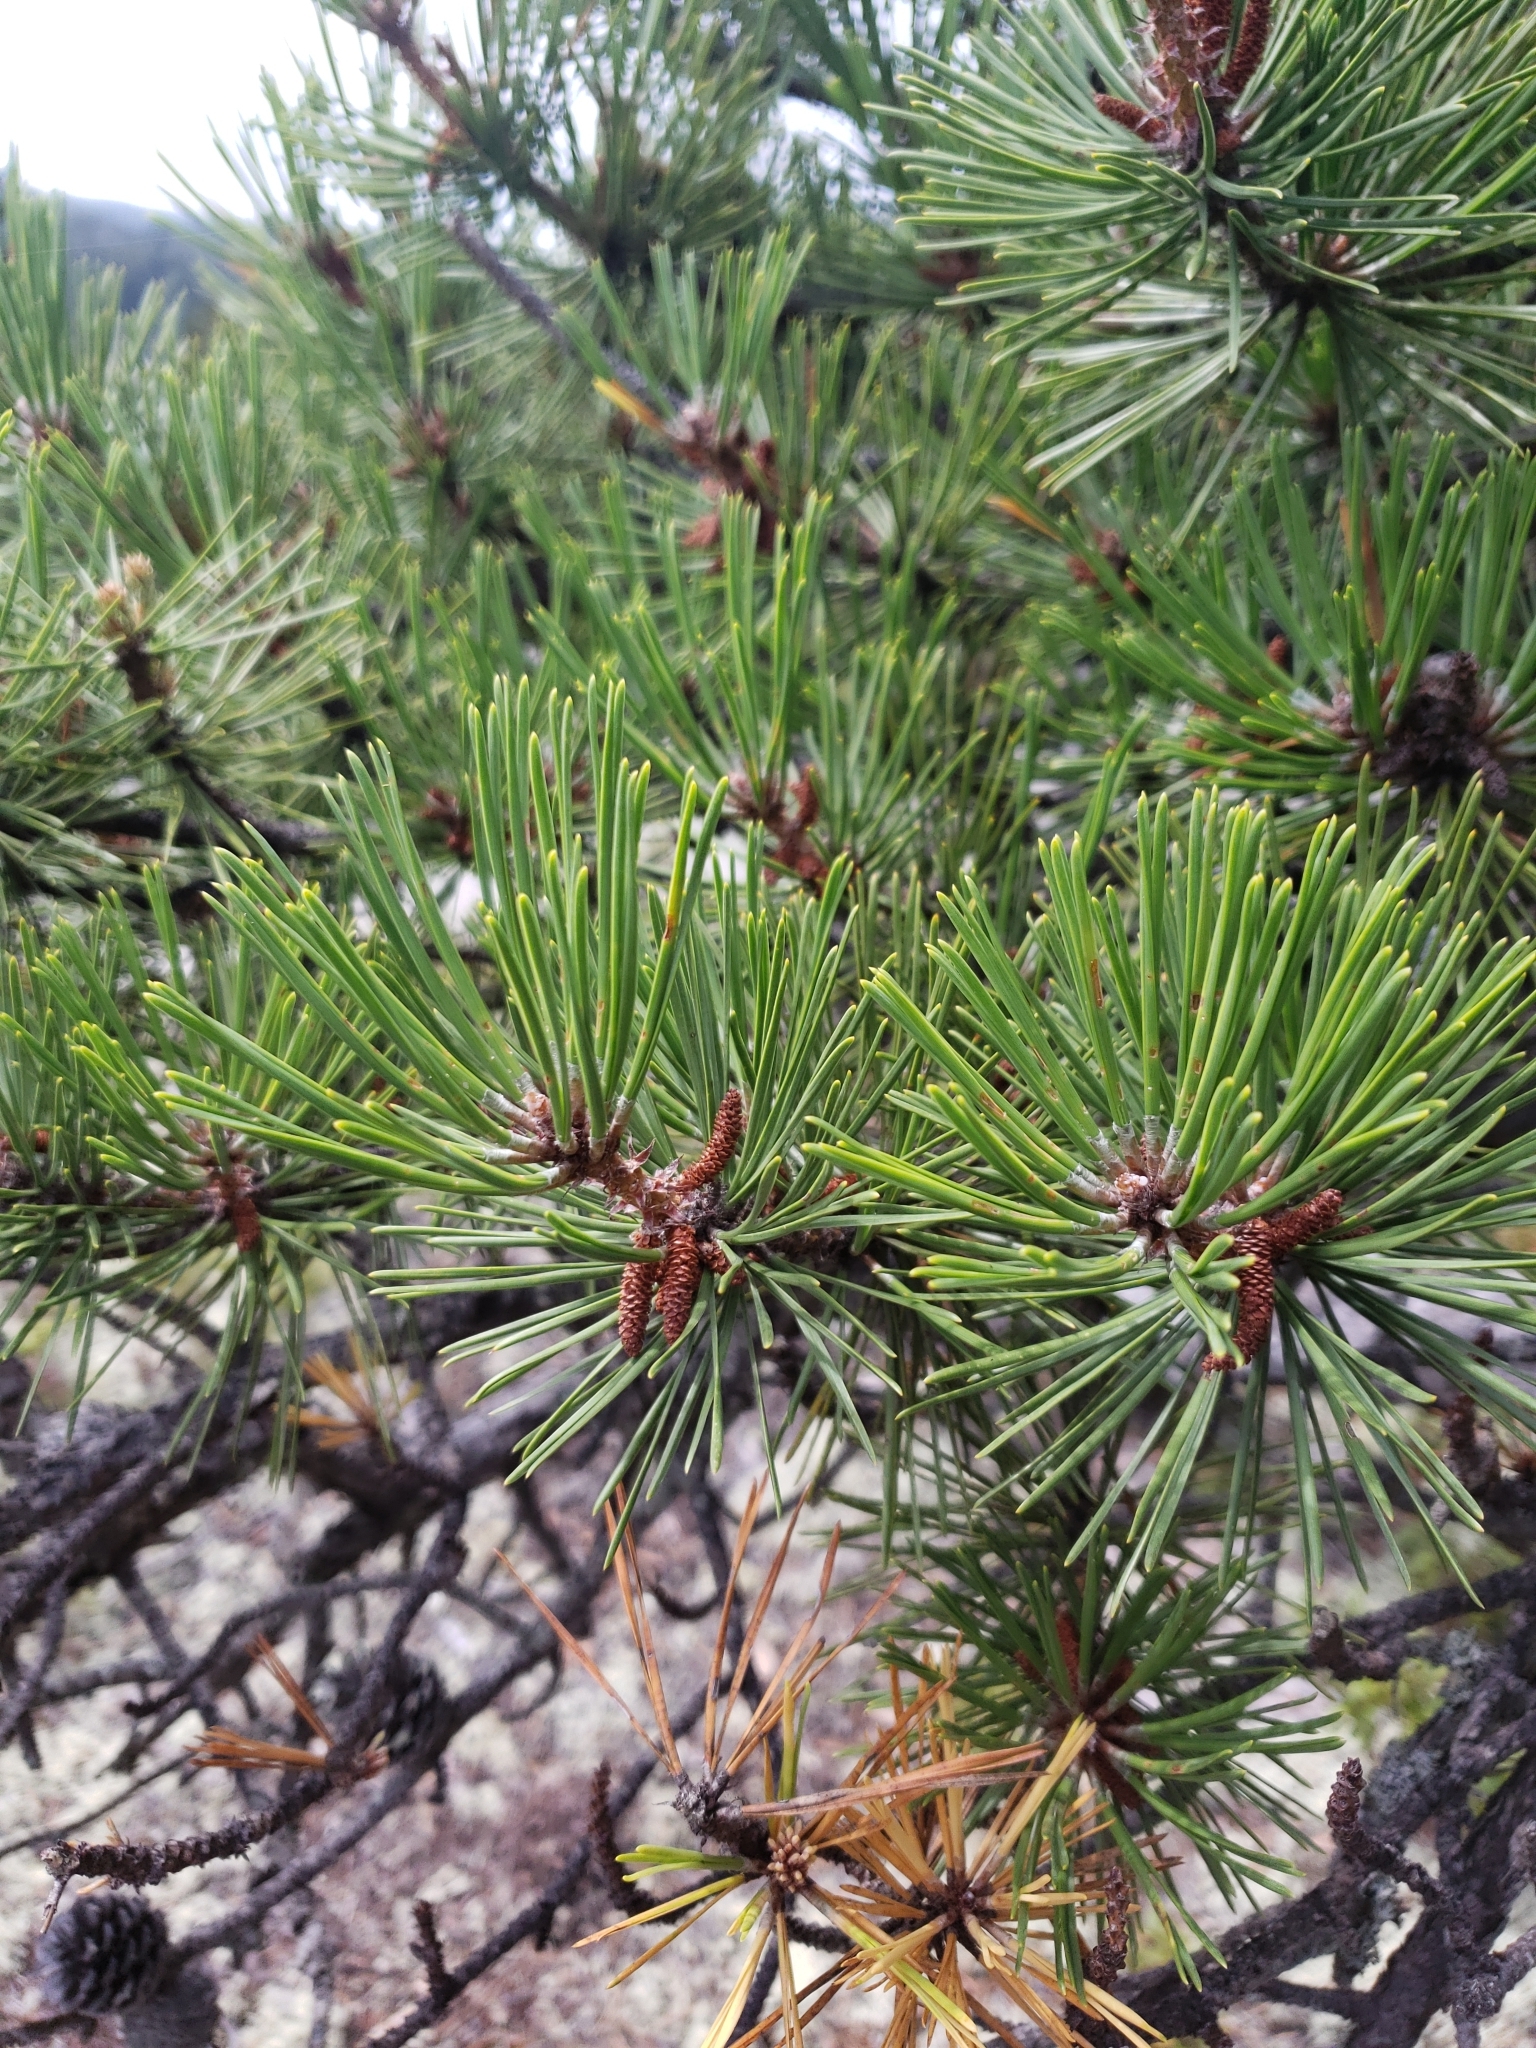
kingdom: Plantae
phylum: Tracheophyta
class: Pinopsida
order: Pinales
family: Pinaceae
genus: Pinus
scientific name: Pinus rigida
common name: Pitch pine
